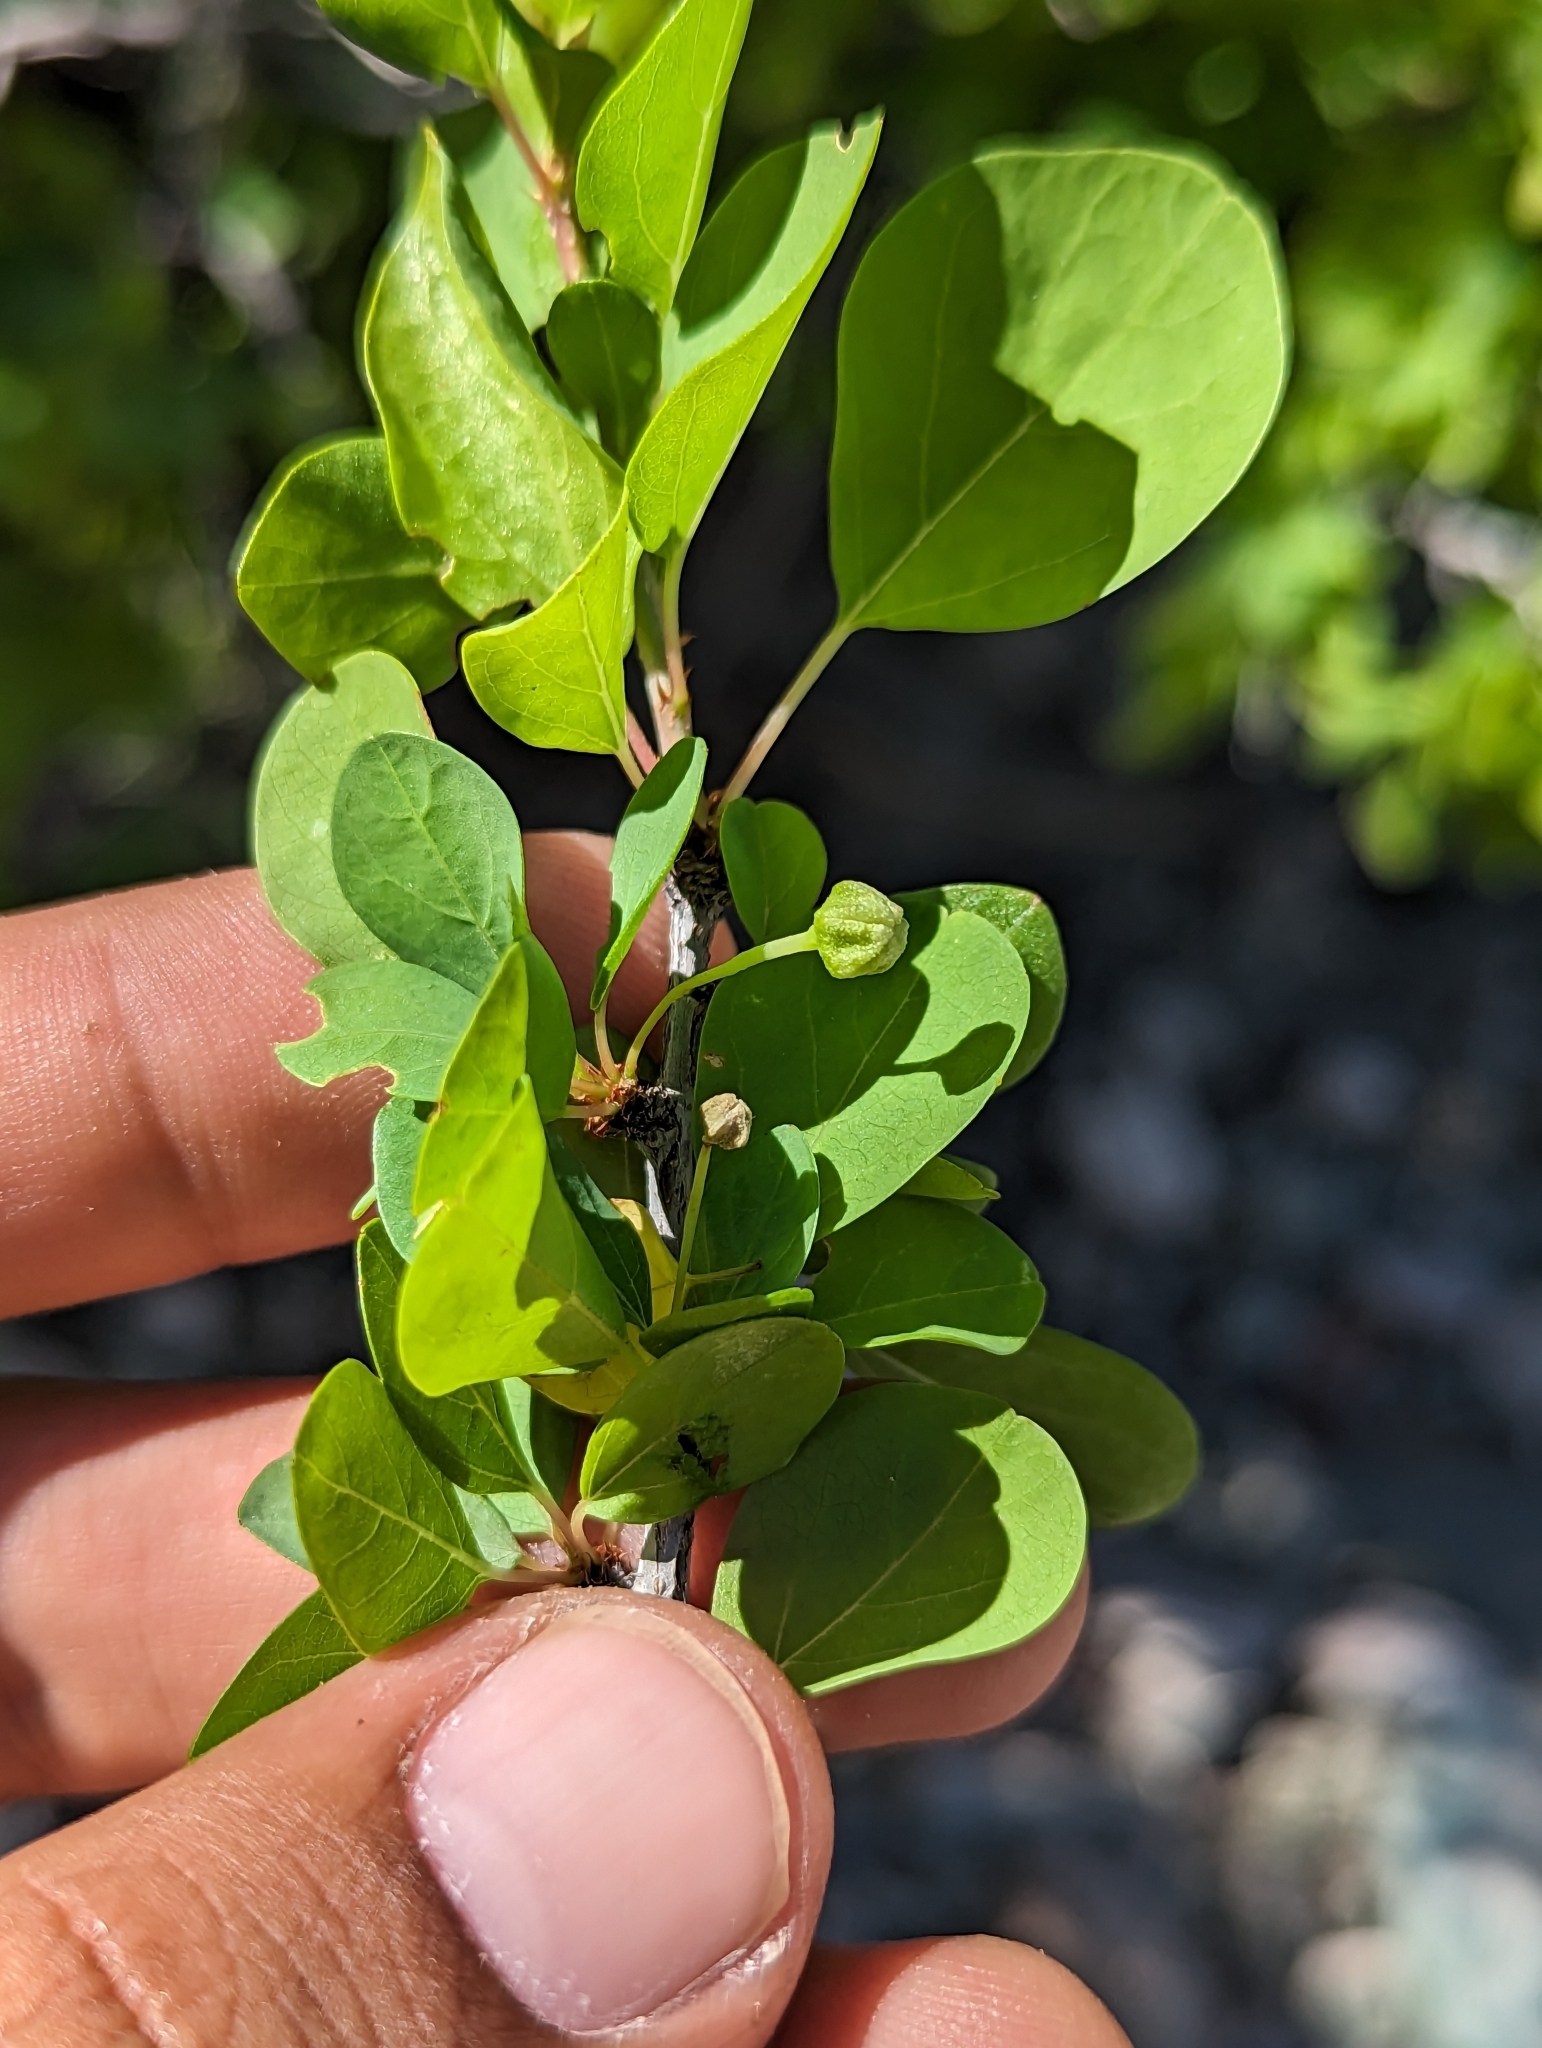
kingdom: Plantae
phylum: Tracheophyta
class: Magnoliopsida
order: Rosales
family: Rhamnaceae
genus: Colubrina
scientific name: Colubrina viridis
